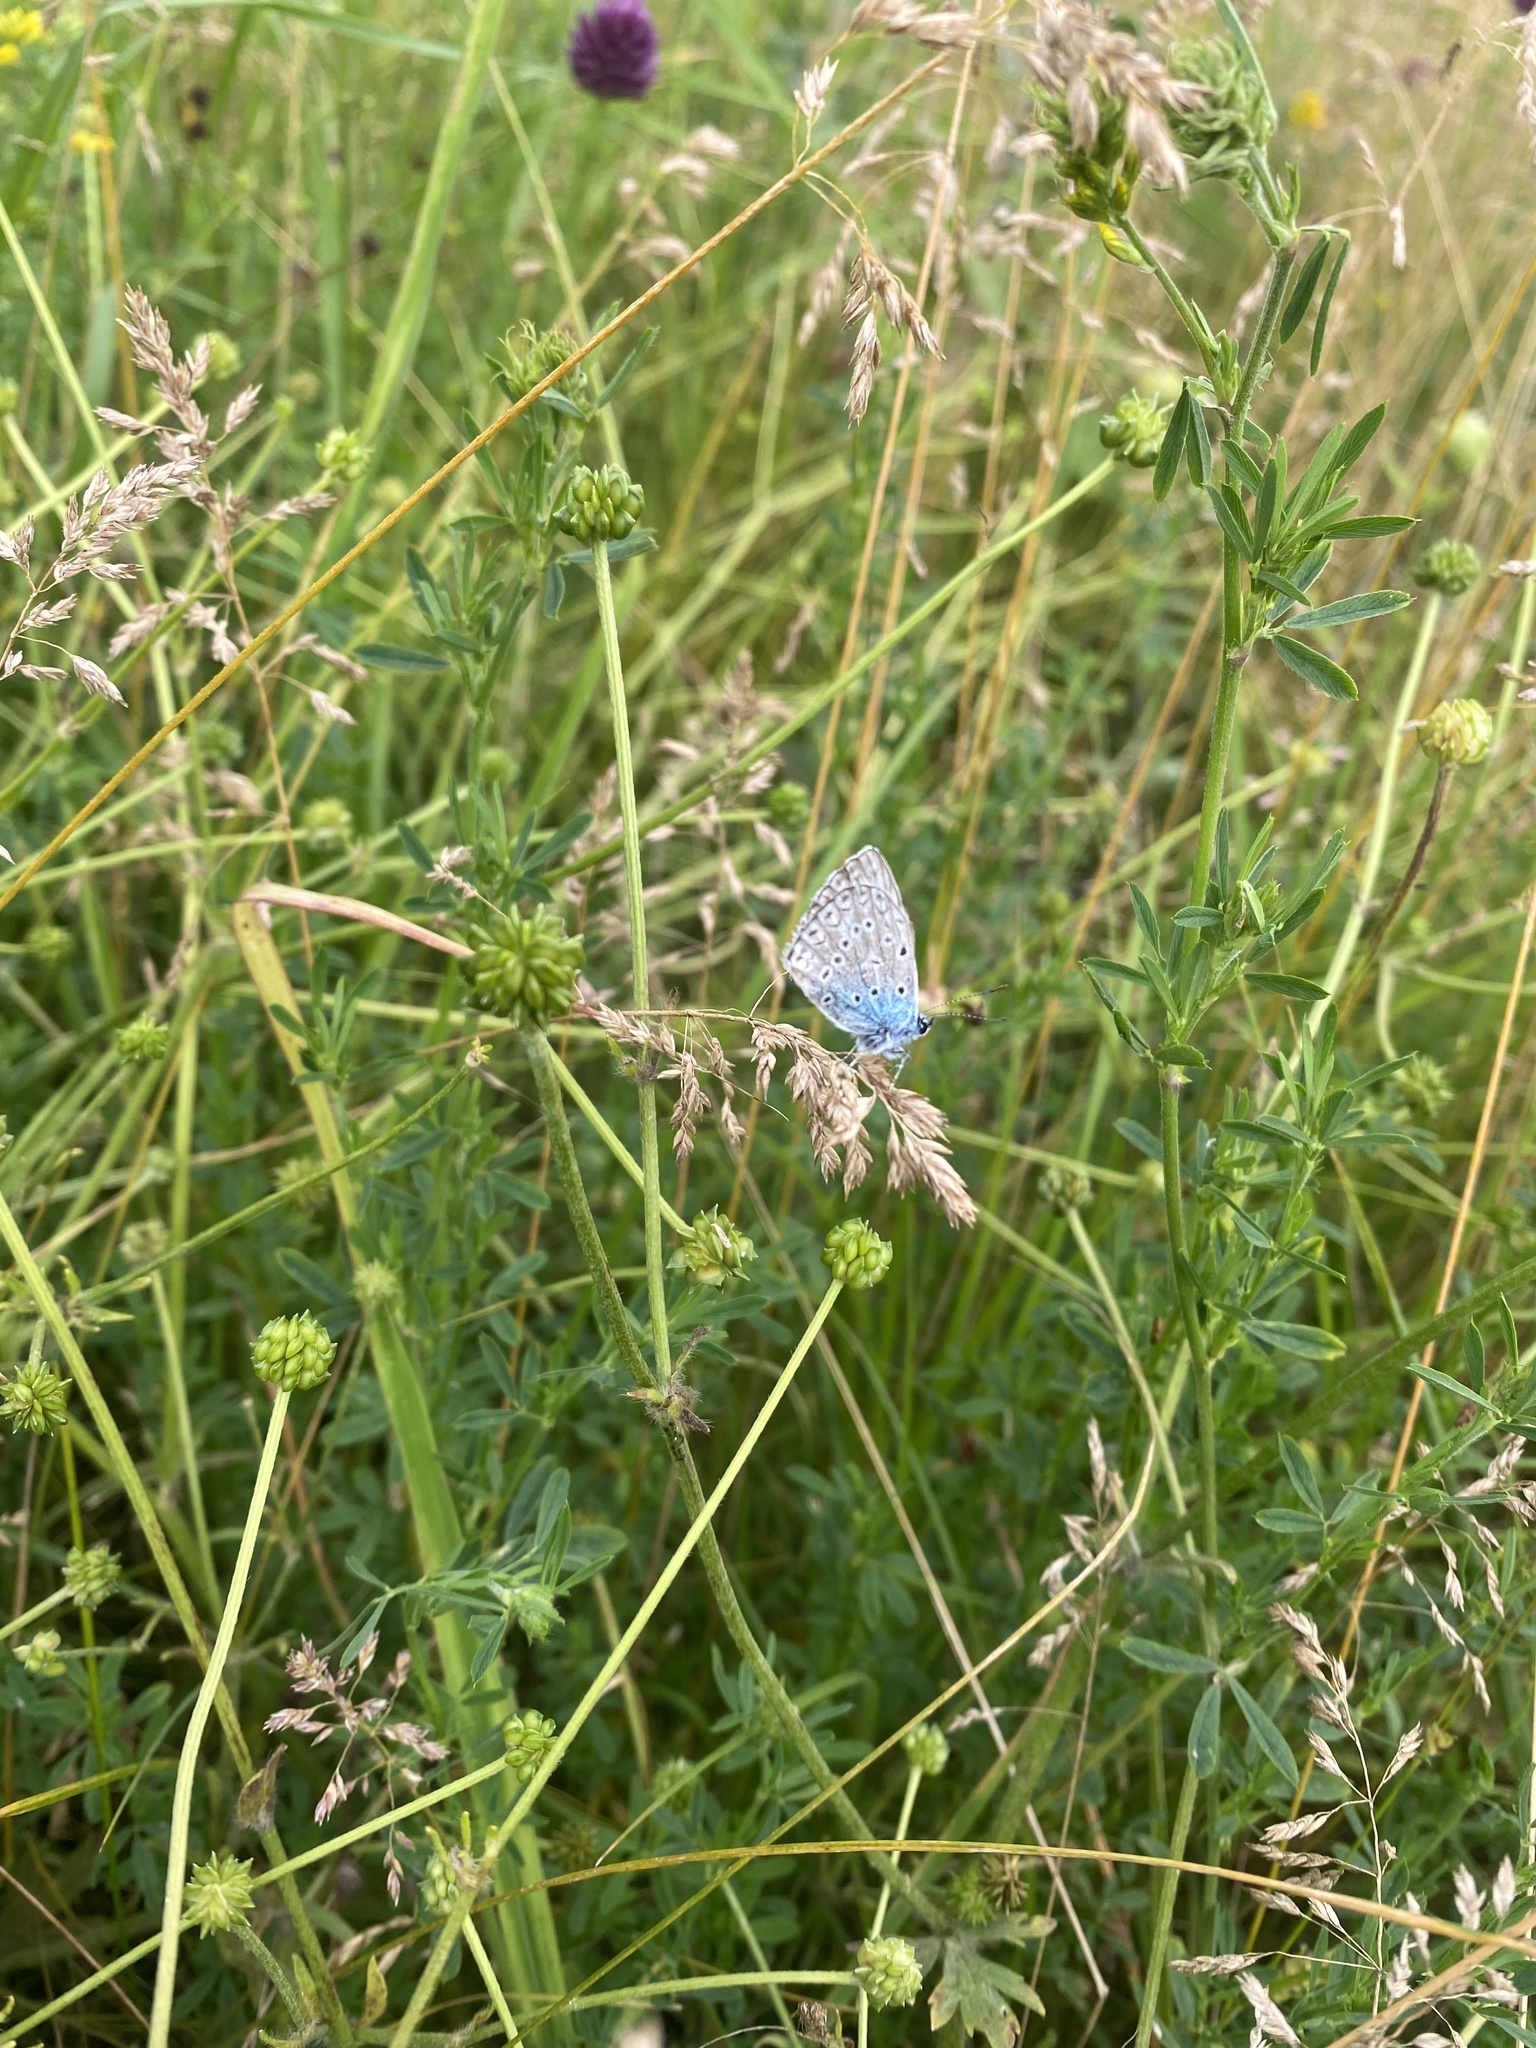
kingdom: Animalia
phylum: Arthropoda
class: Insecta
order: Lepidoptera
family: Lycaenidae
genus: Polyommatus
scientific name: Polyommatus icarus
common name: Common blue
